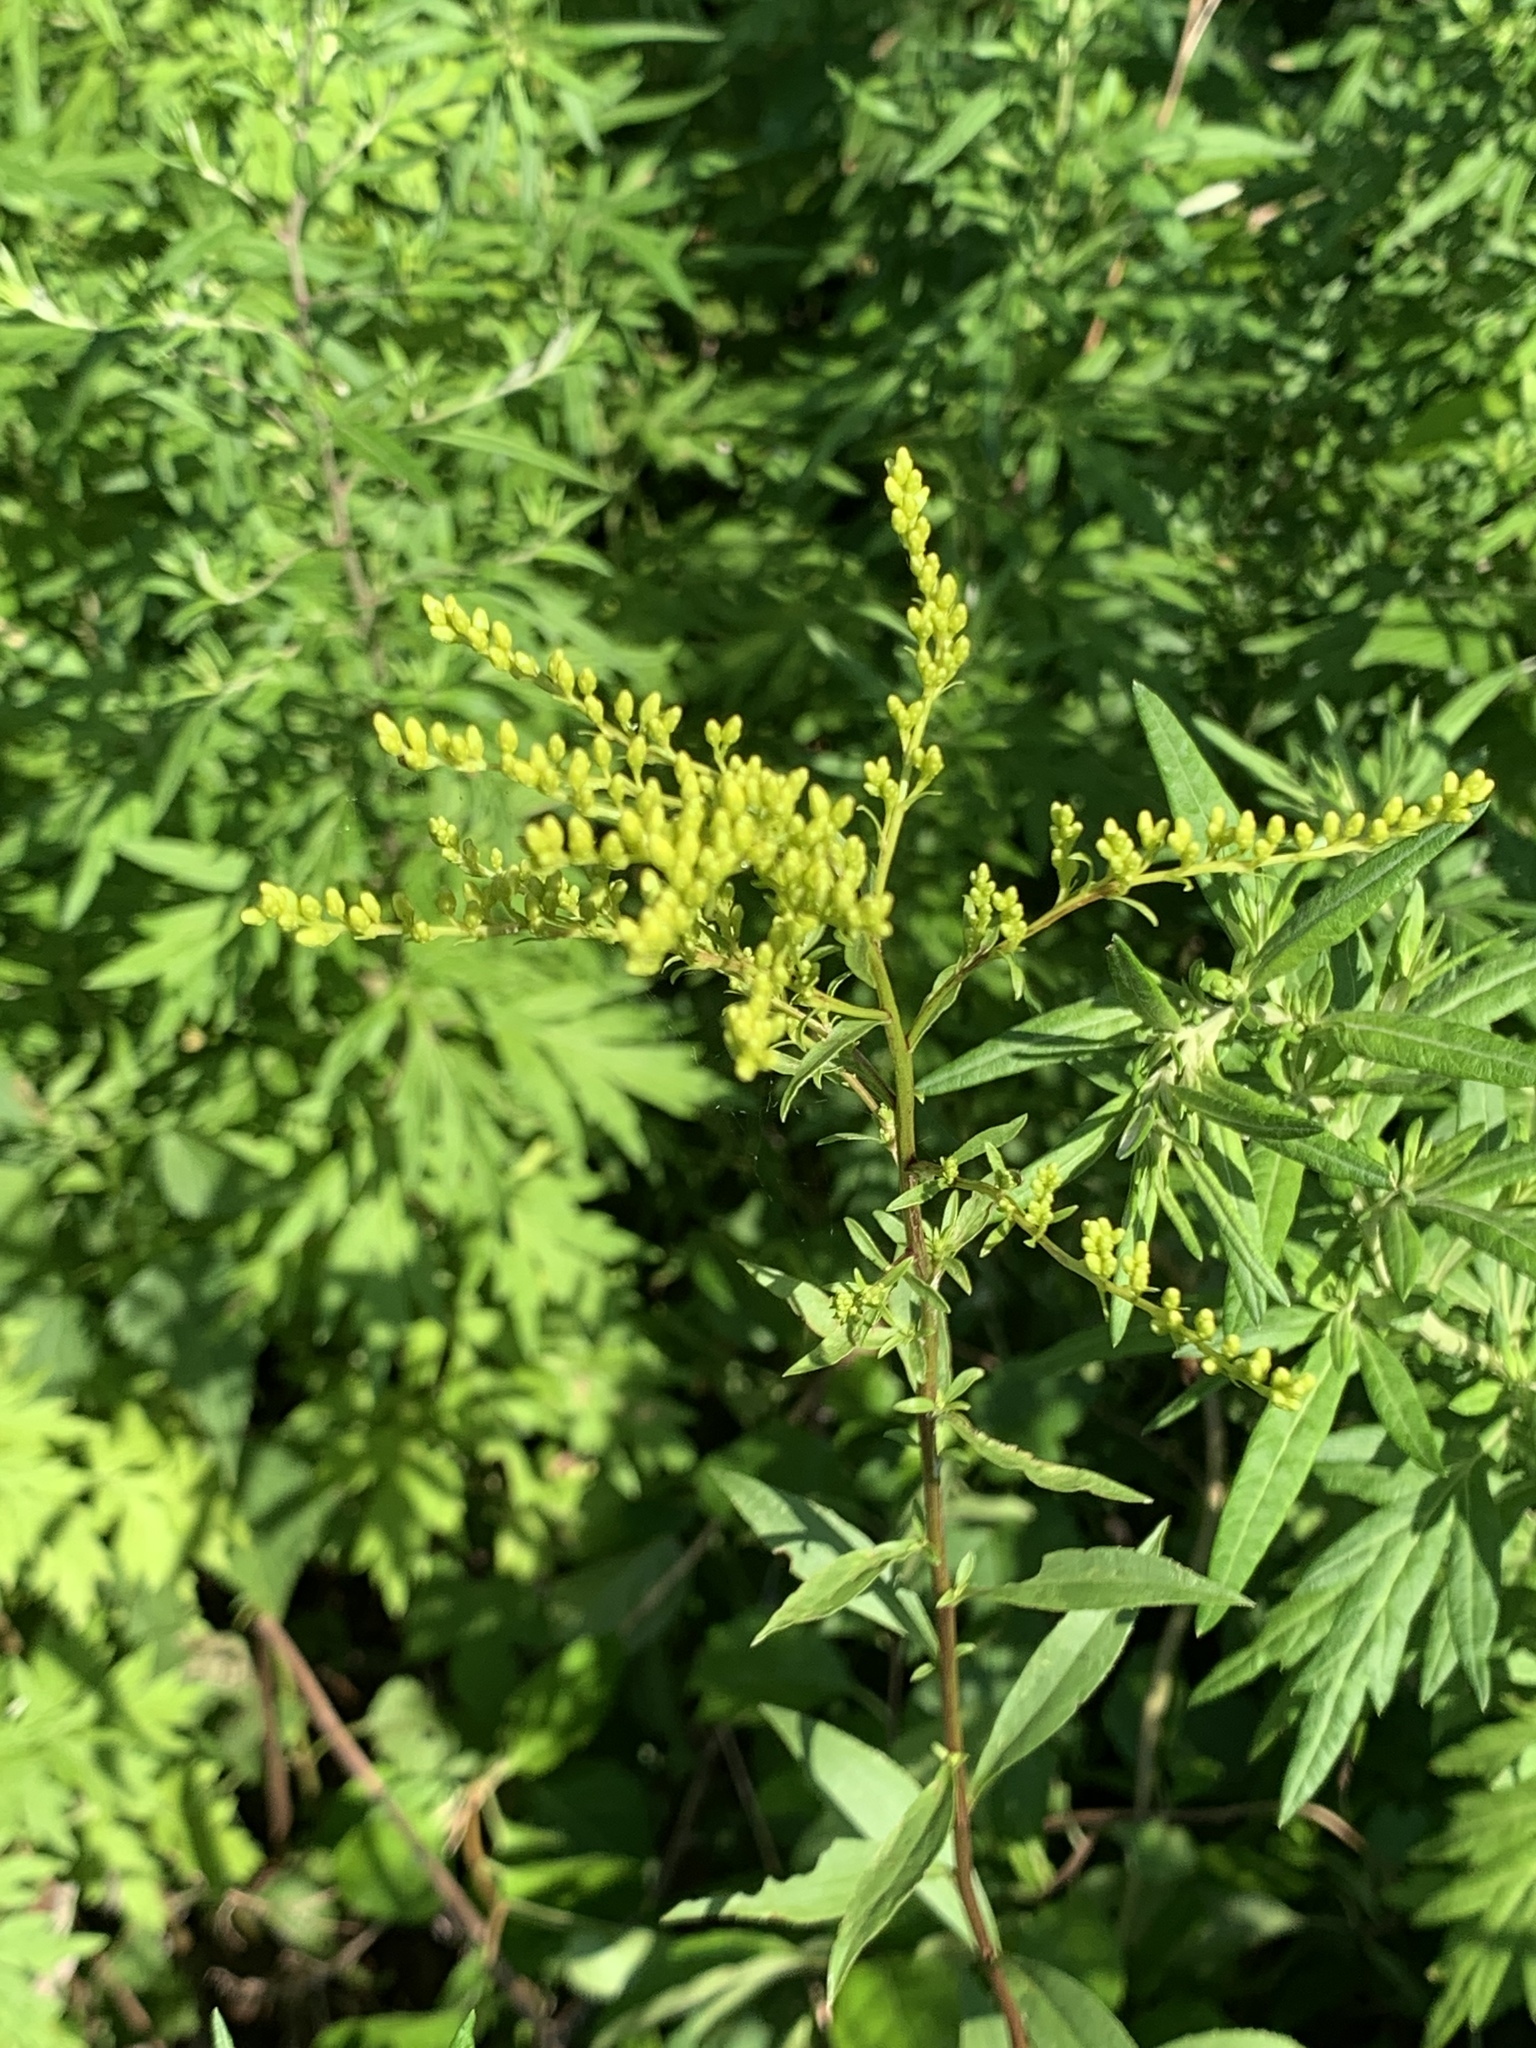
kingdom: Plantae
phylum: Tracheophyta
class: Magnoliopsida
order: Asterales
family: Asteraceae
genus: Solidago
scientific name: Solidago juncea
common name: Early goldenrod
